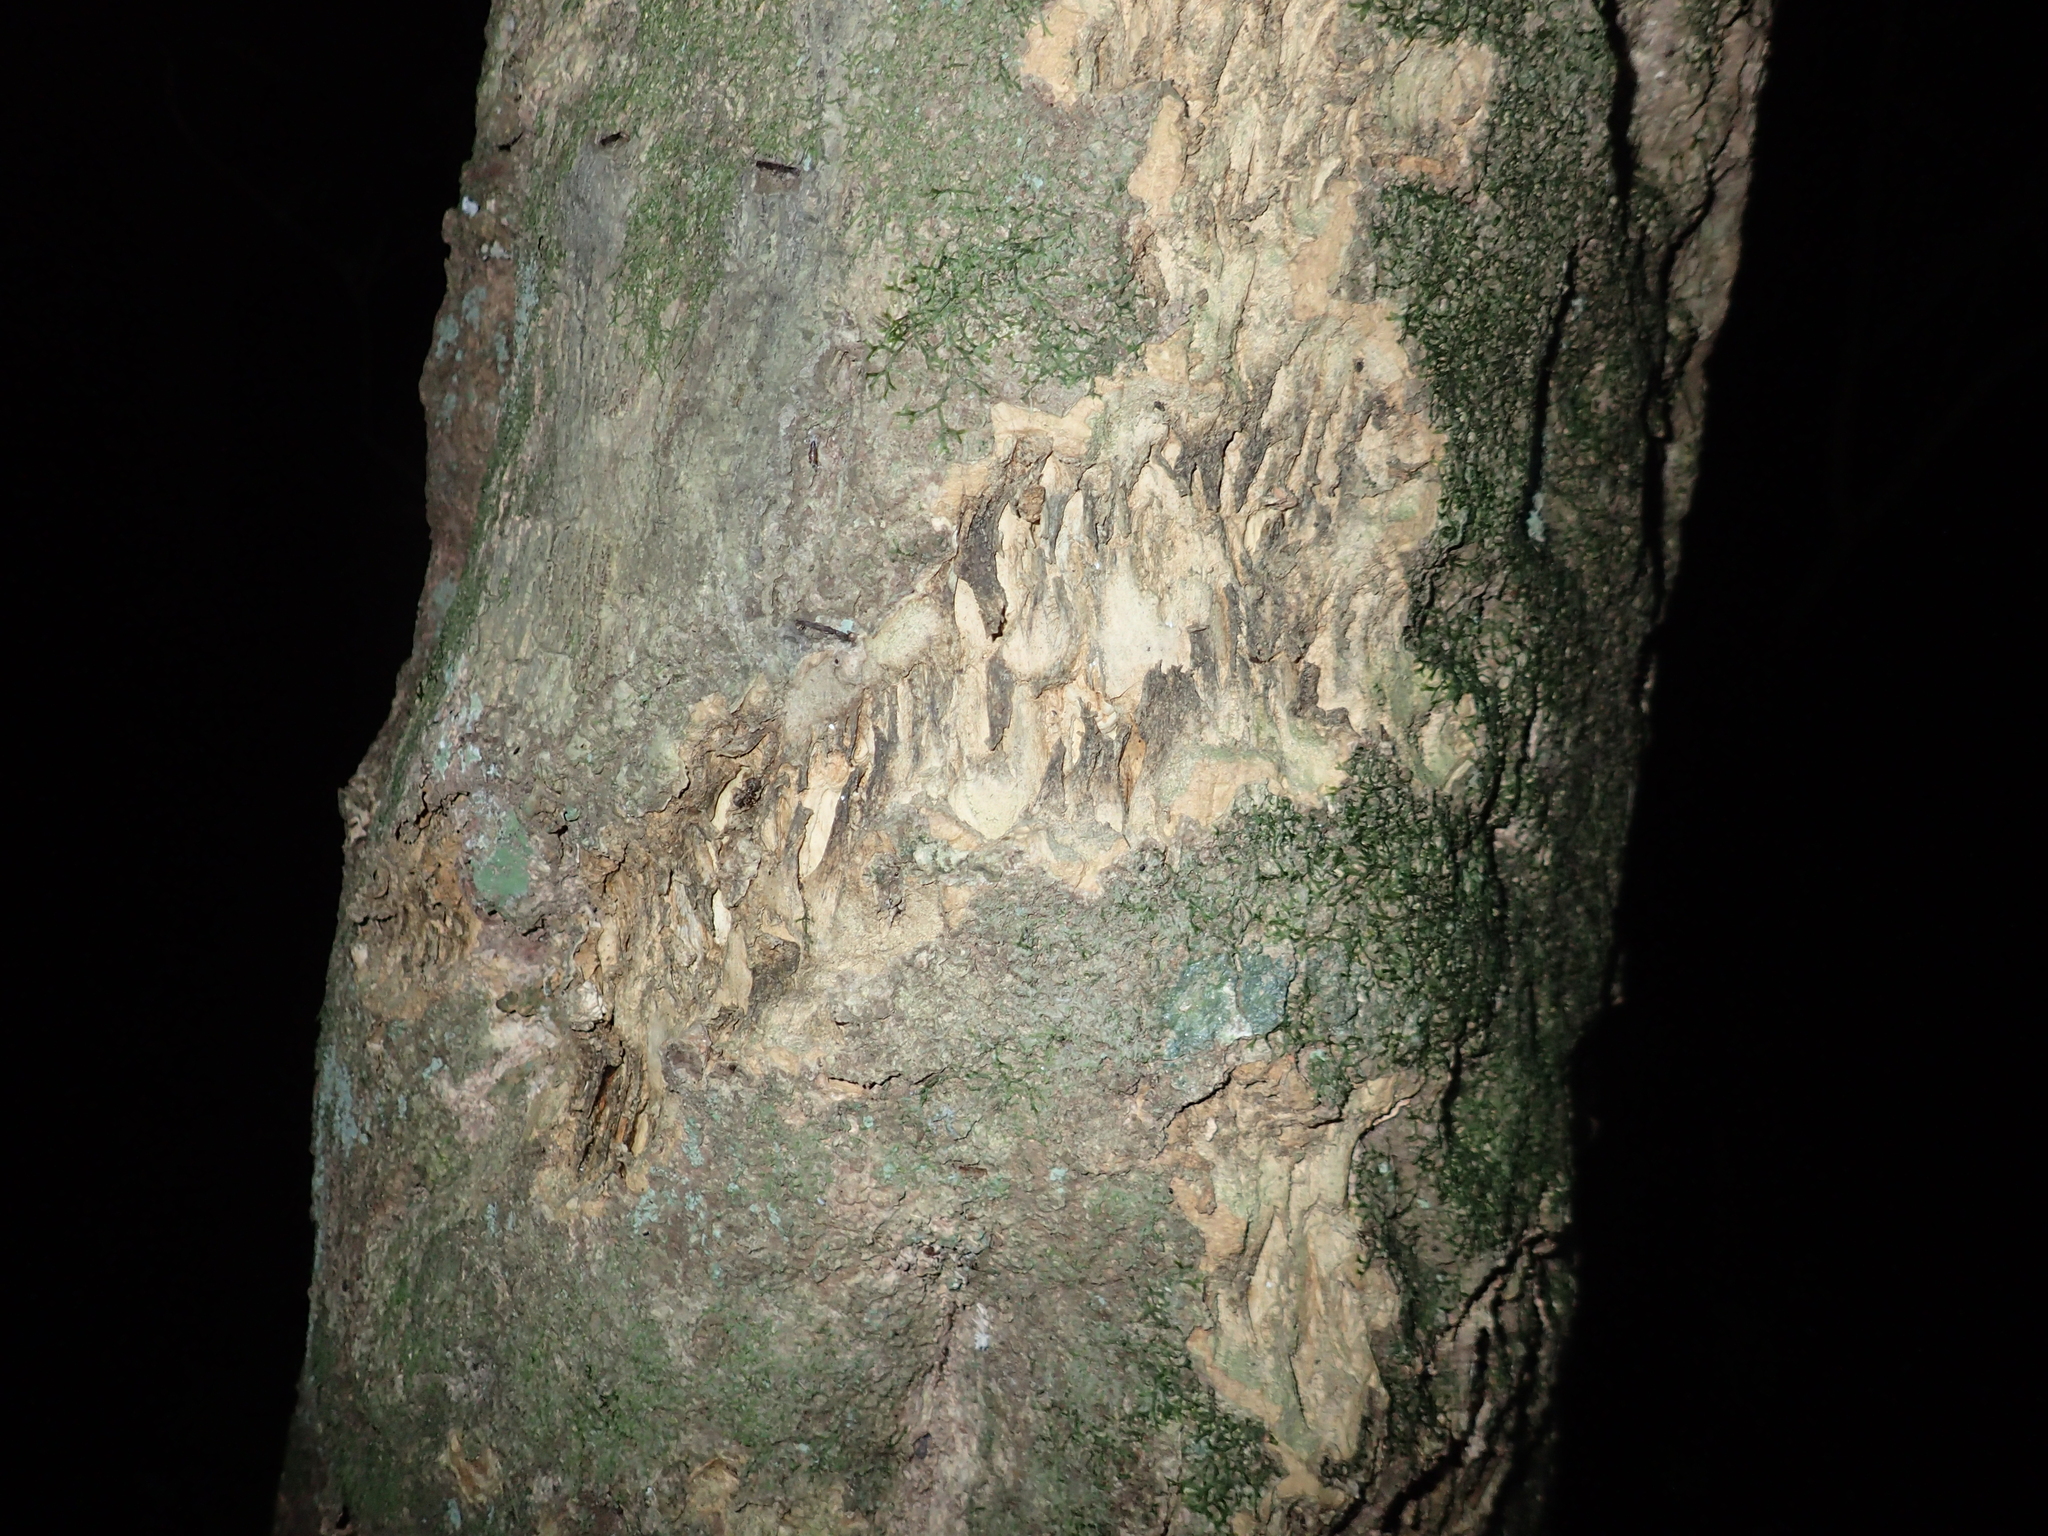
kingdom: Animalia
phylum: Chordata
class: Mammalia
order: Diprotodontia
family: Phalangeridae
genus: Trichosurus
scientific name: Trichosurus vulpecula
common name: Common brushtail
